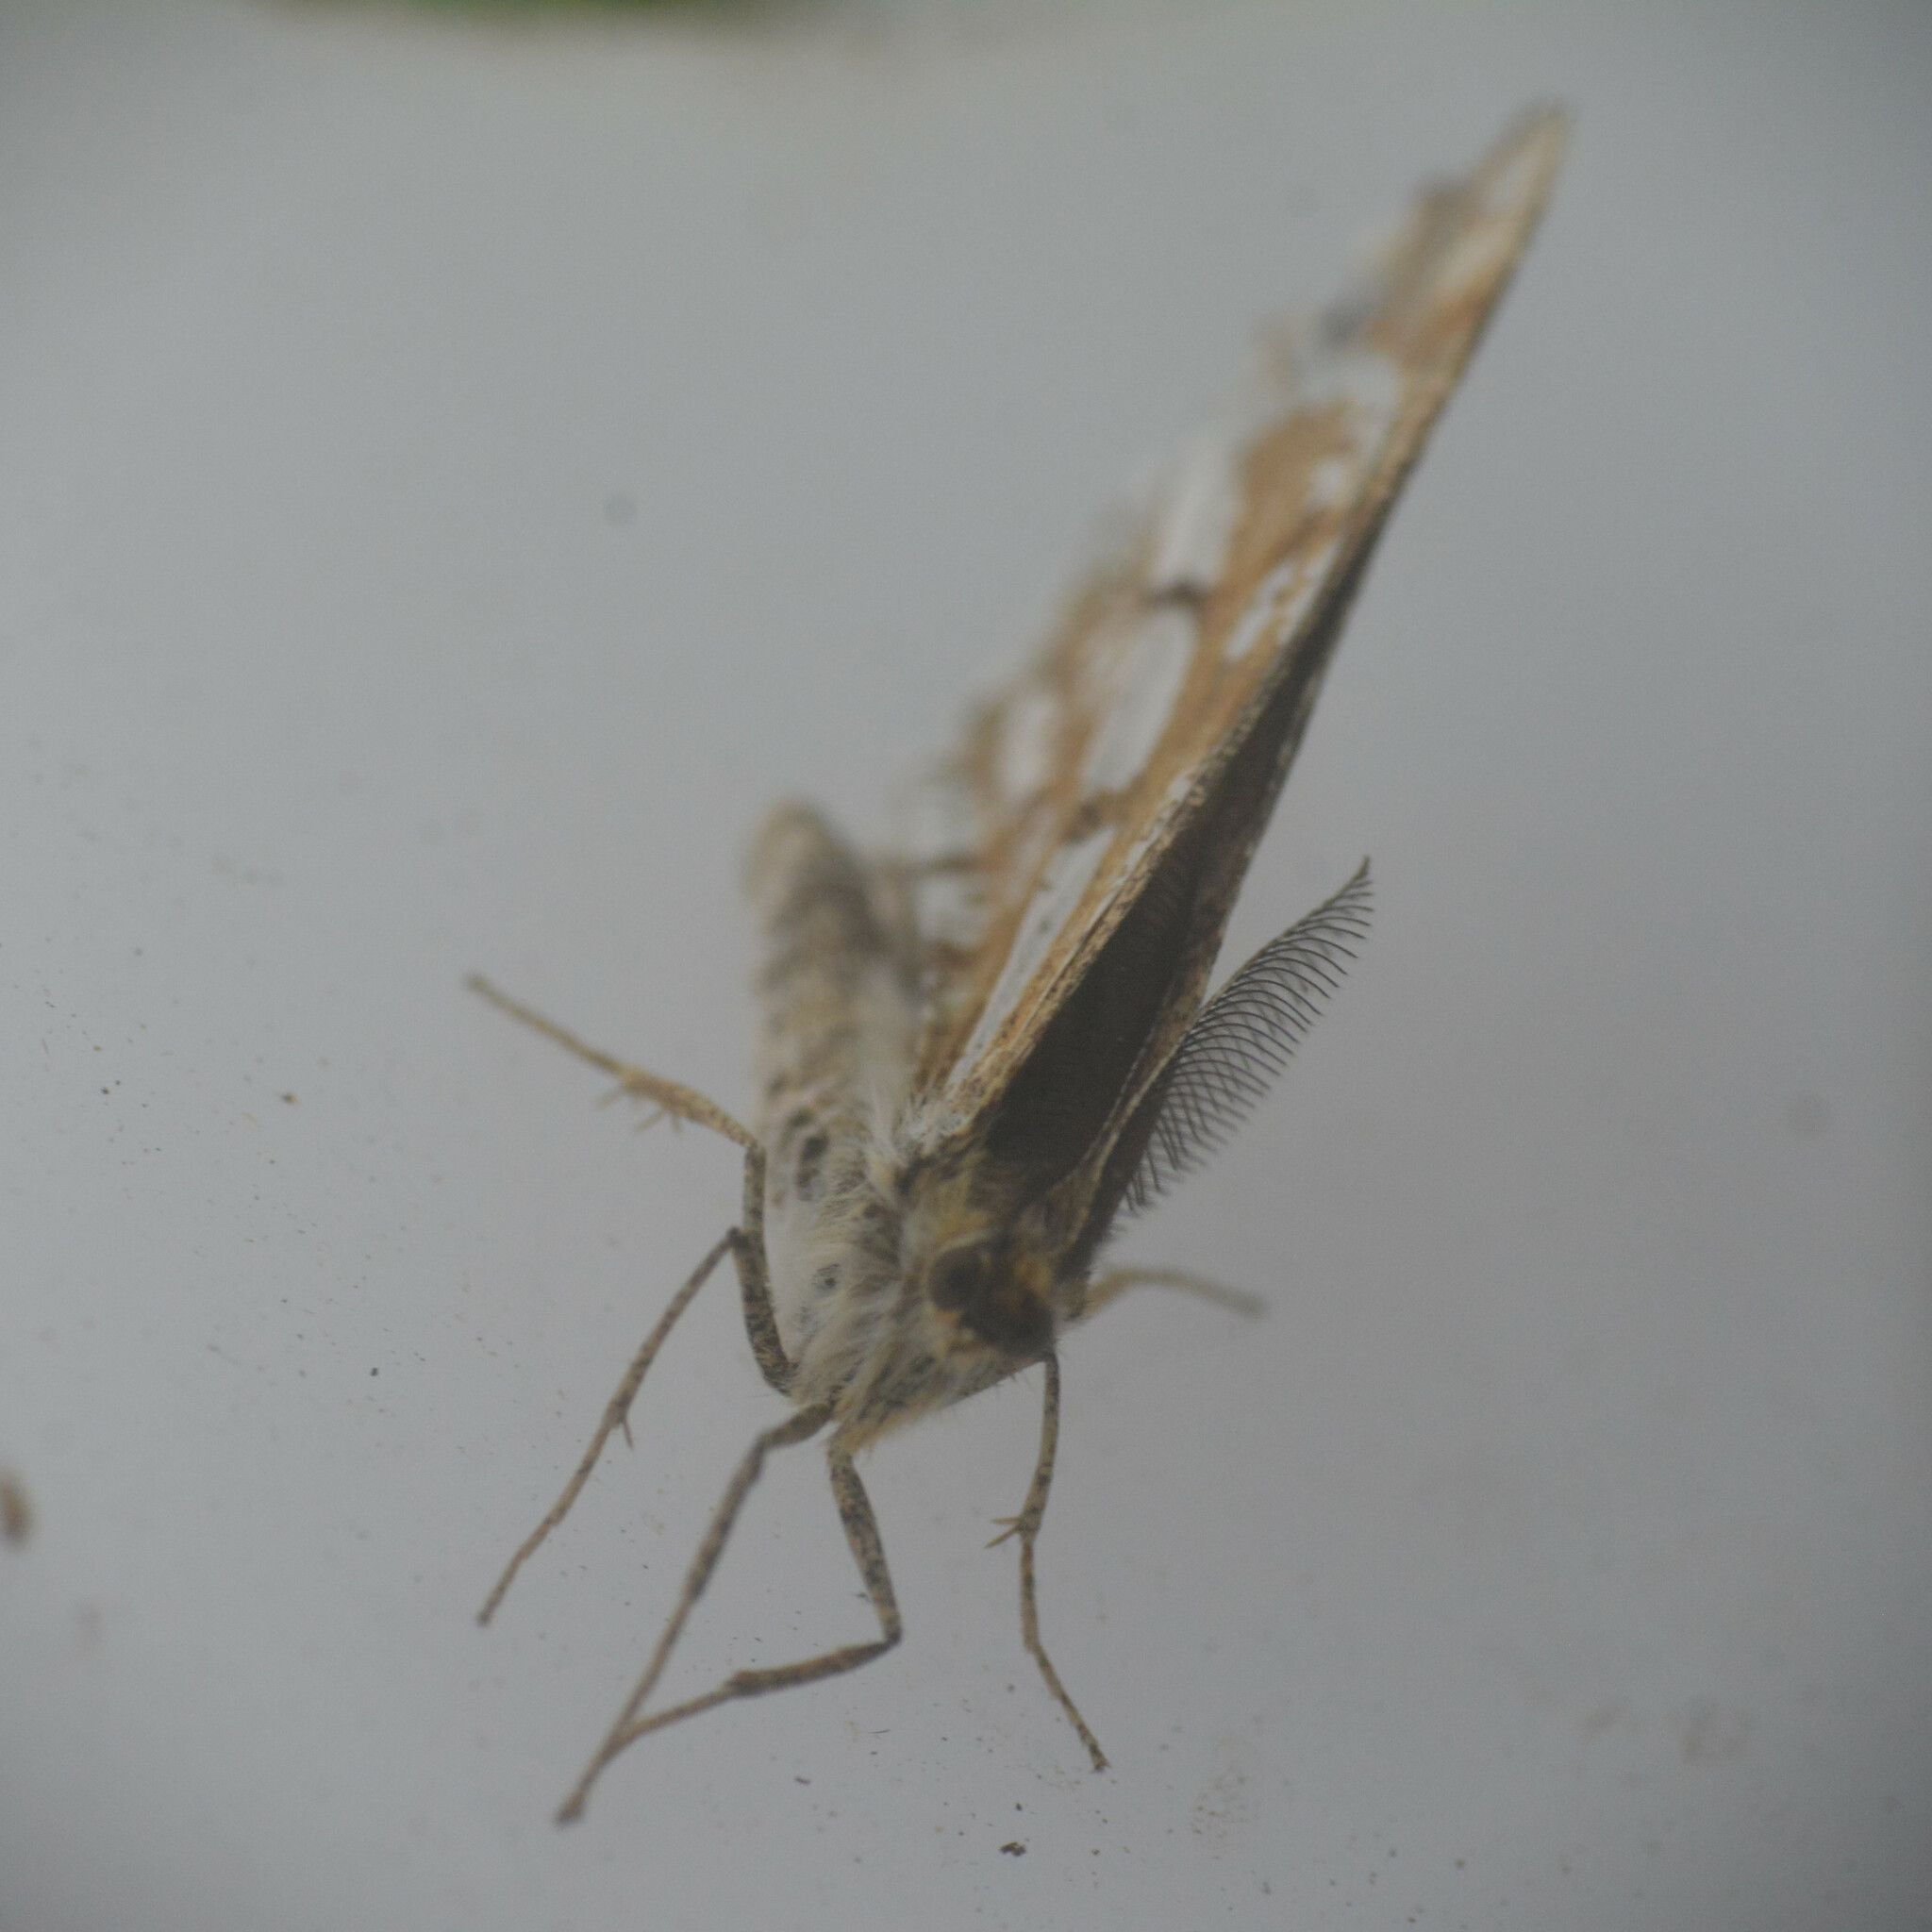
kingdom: Animalia
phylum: Arthropoda
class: Insecta
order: Lepidoptera
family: Geometridae
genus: Bupalus
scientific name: Bupalus piniaria
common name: Bordered white
